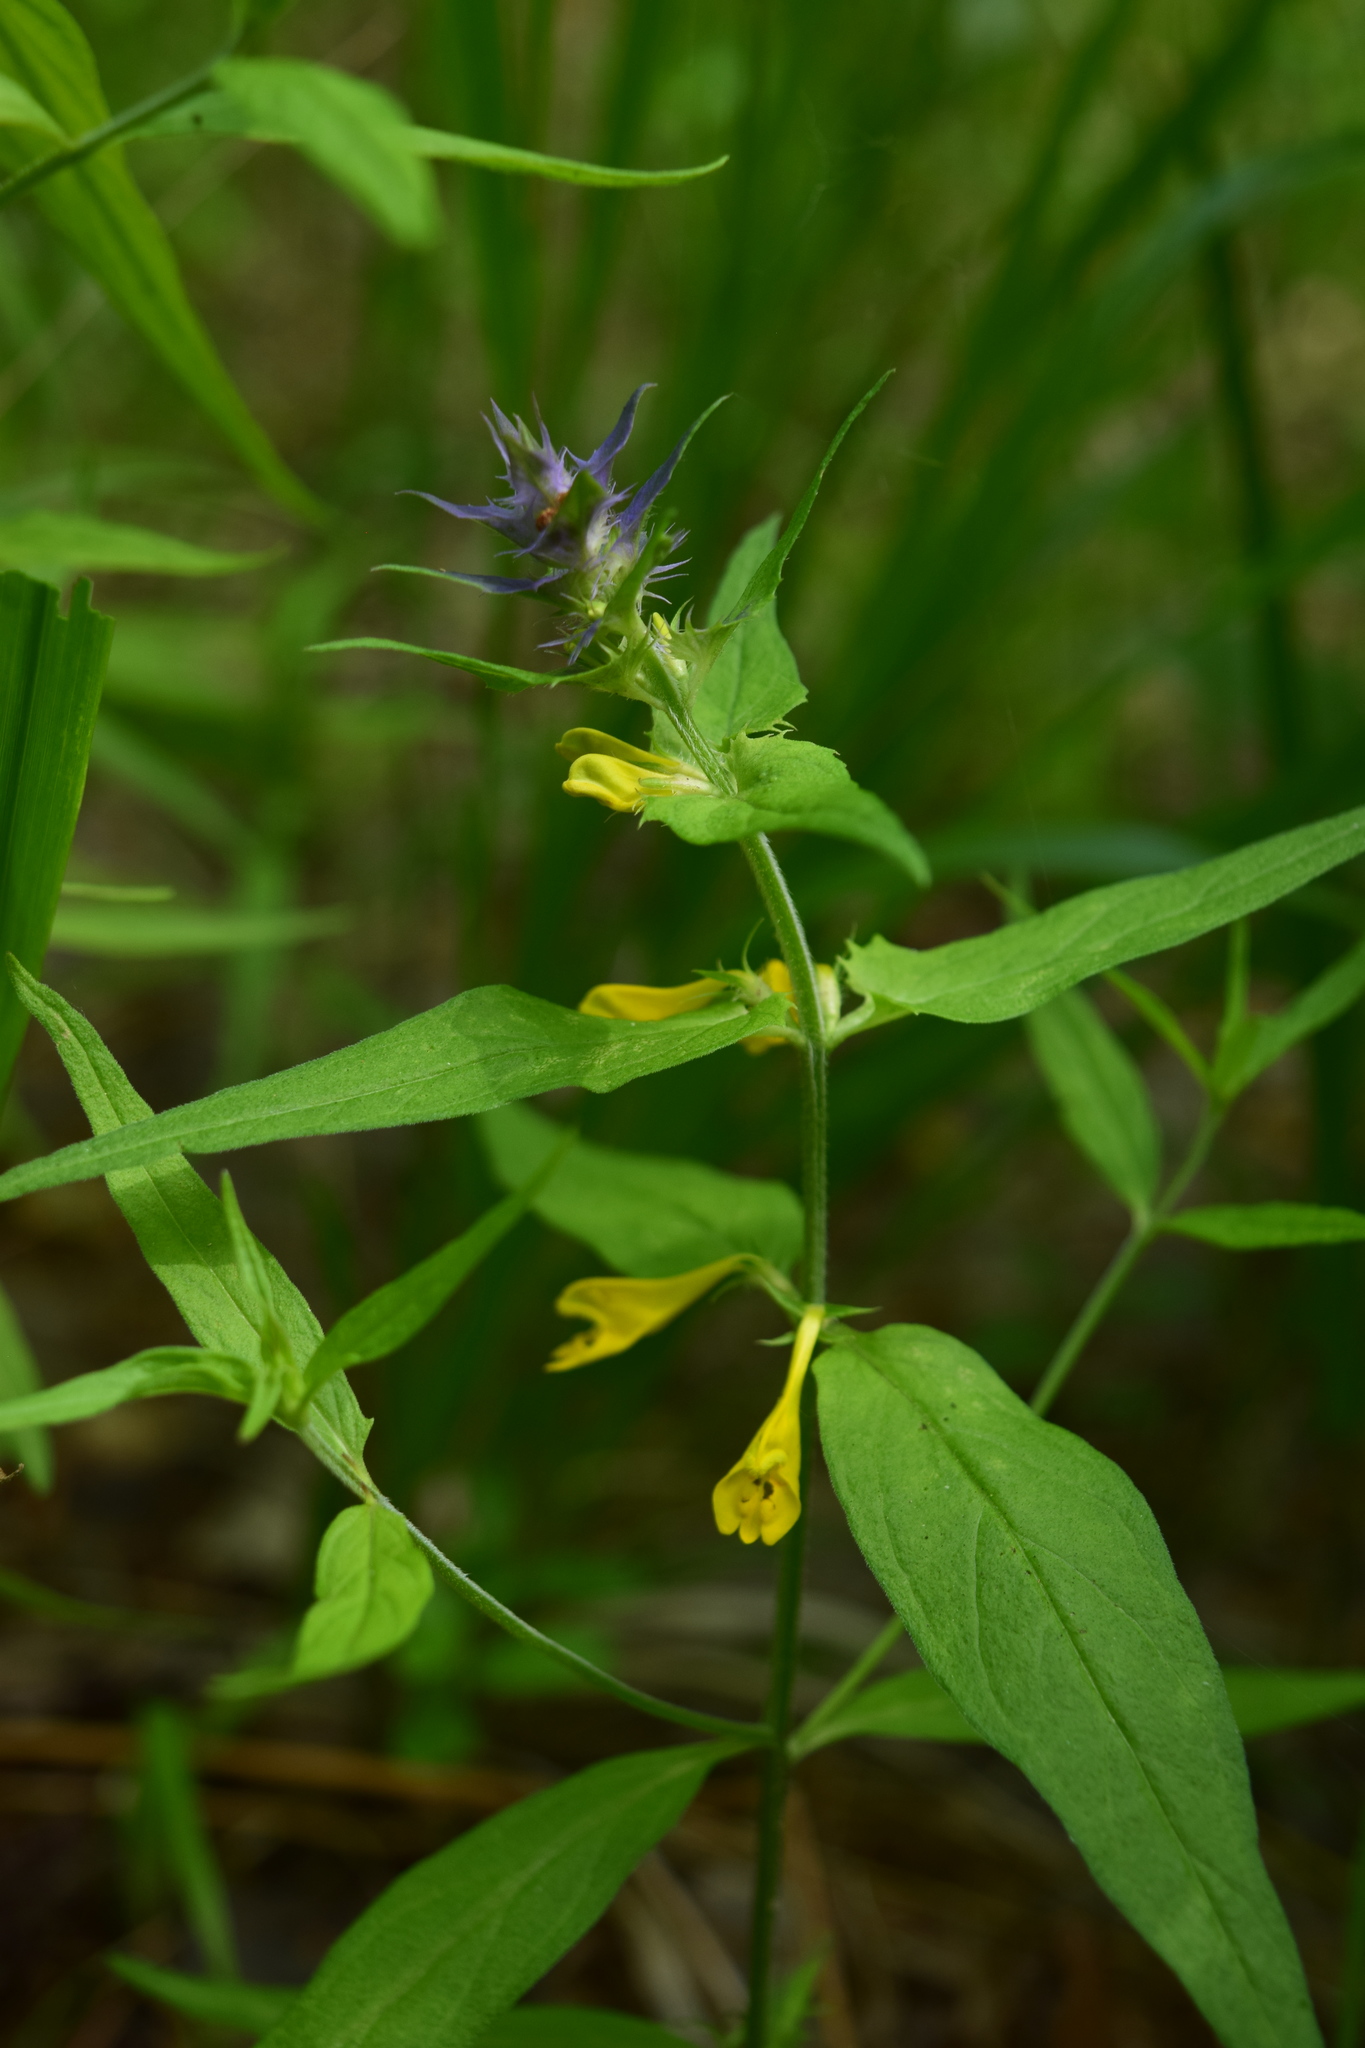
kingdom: Plantae
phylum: Tracheophyta
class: Magnoliopsida
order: Lamiales
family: Orobanchaceae
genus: Melampyrum
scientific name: Melampyrum nemorosum
